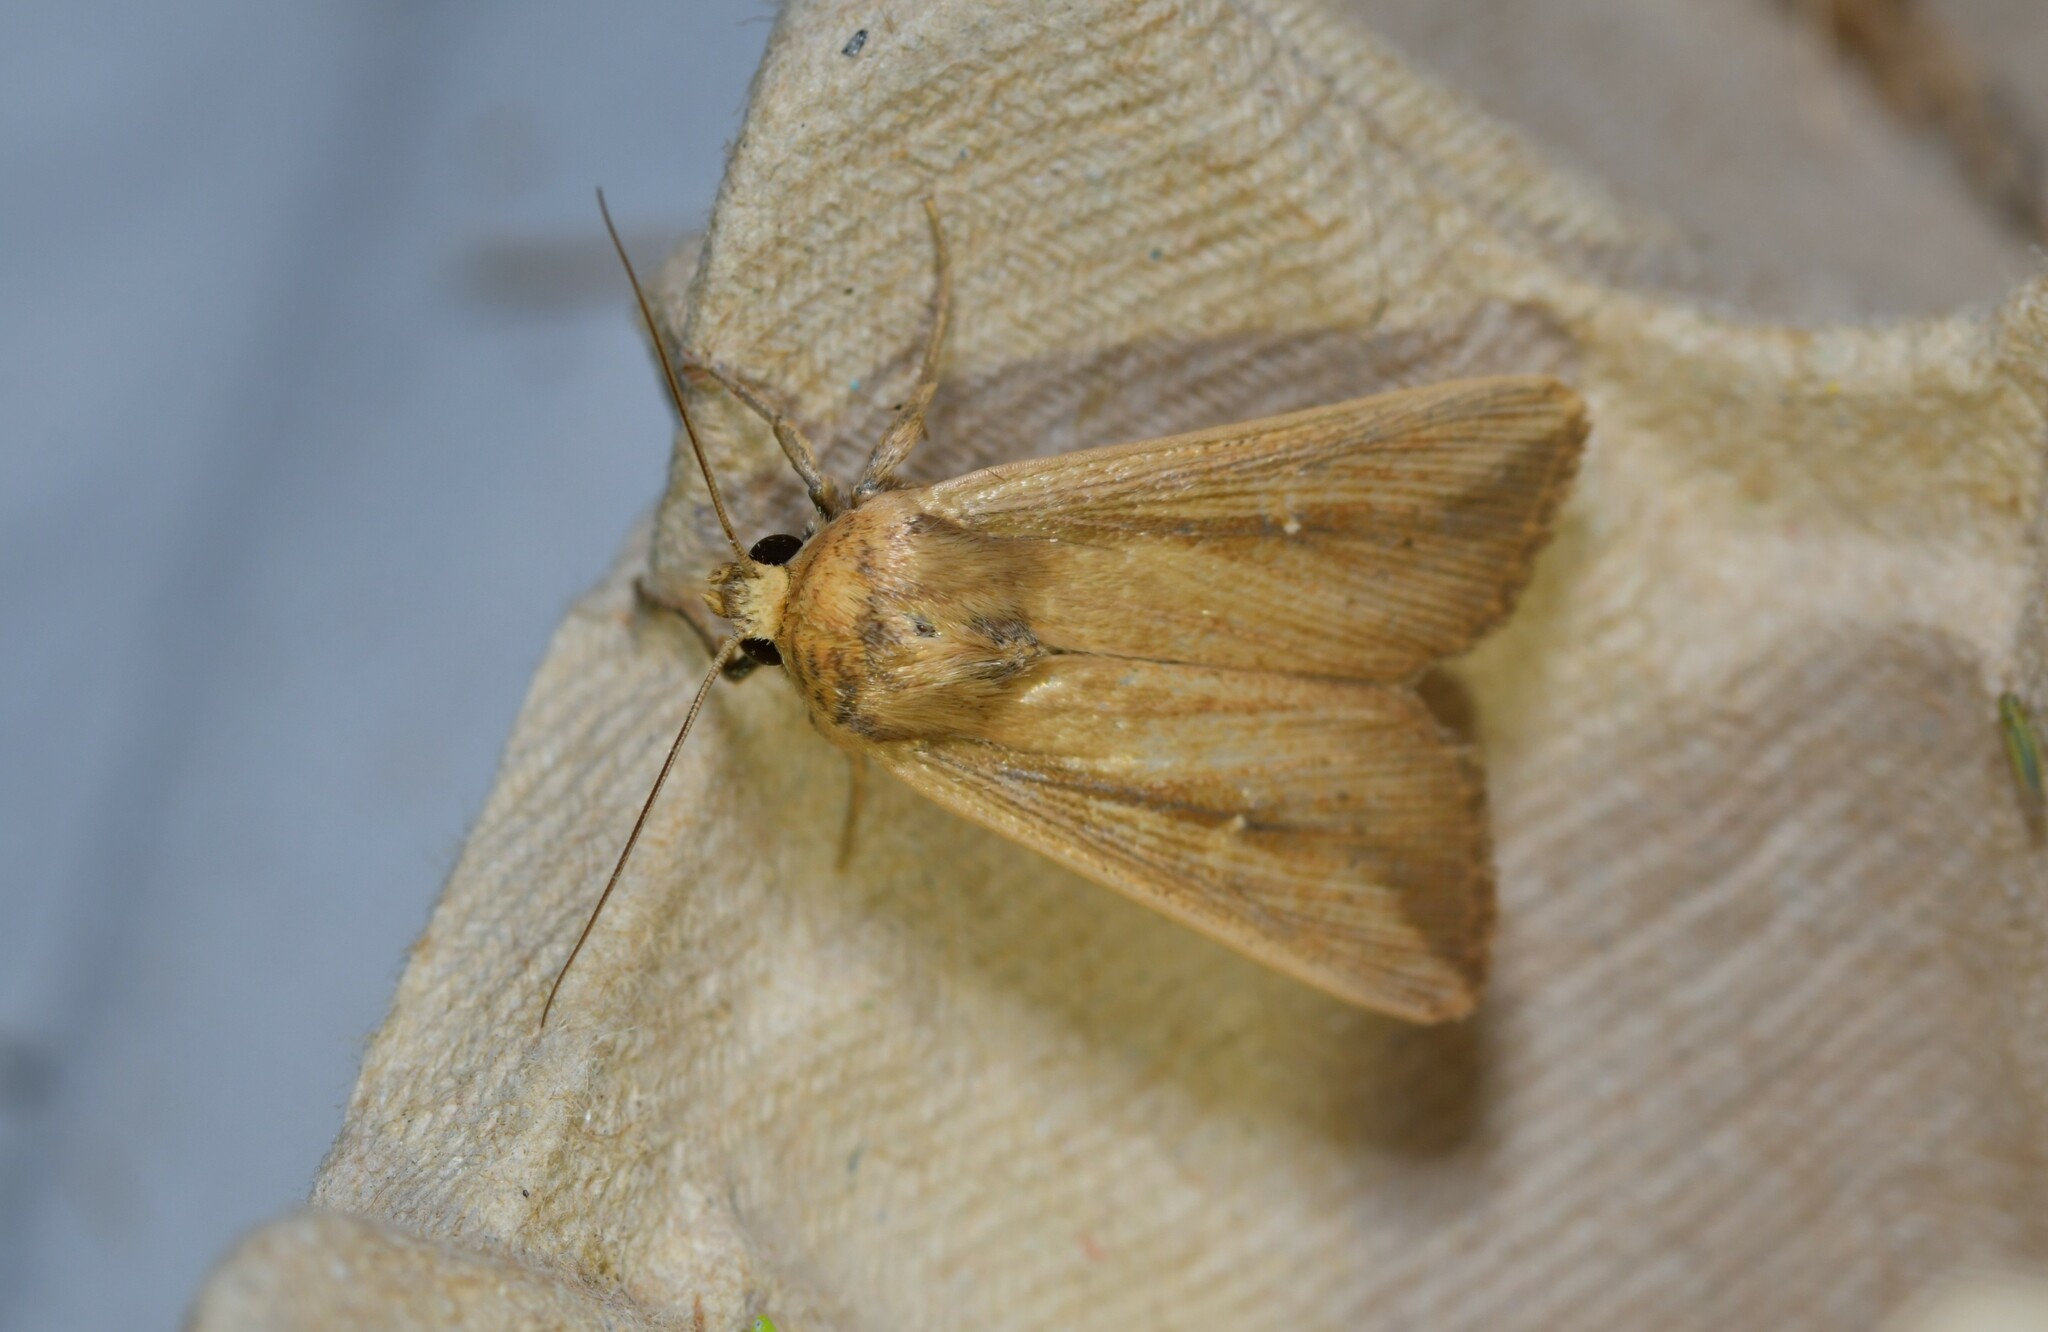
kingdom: Animalia
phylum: Arthropoda
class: Insecta
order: Lepidoptera
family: Noctuidae
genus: Leucania
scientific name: Leucania loreyi
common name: The cosmopolitan
